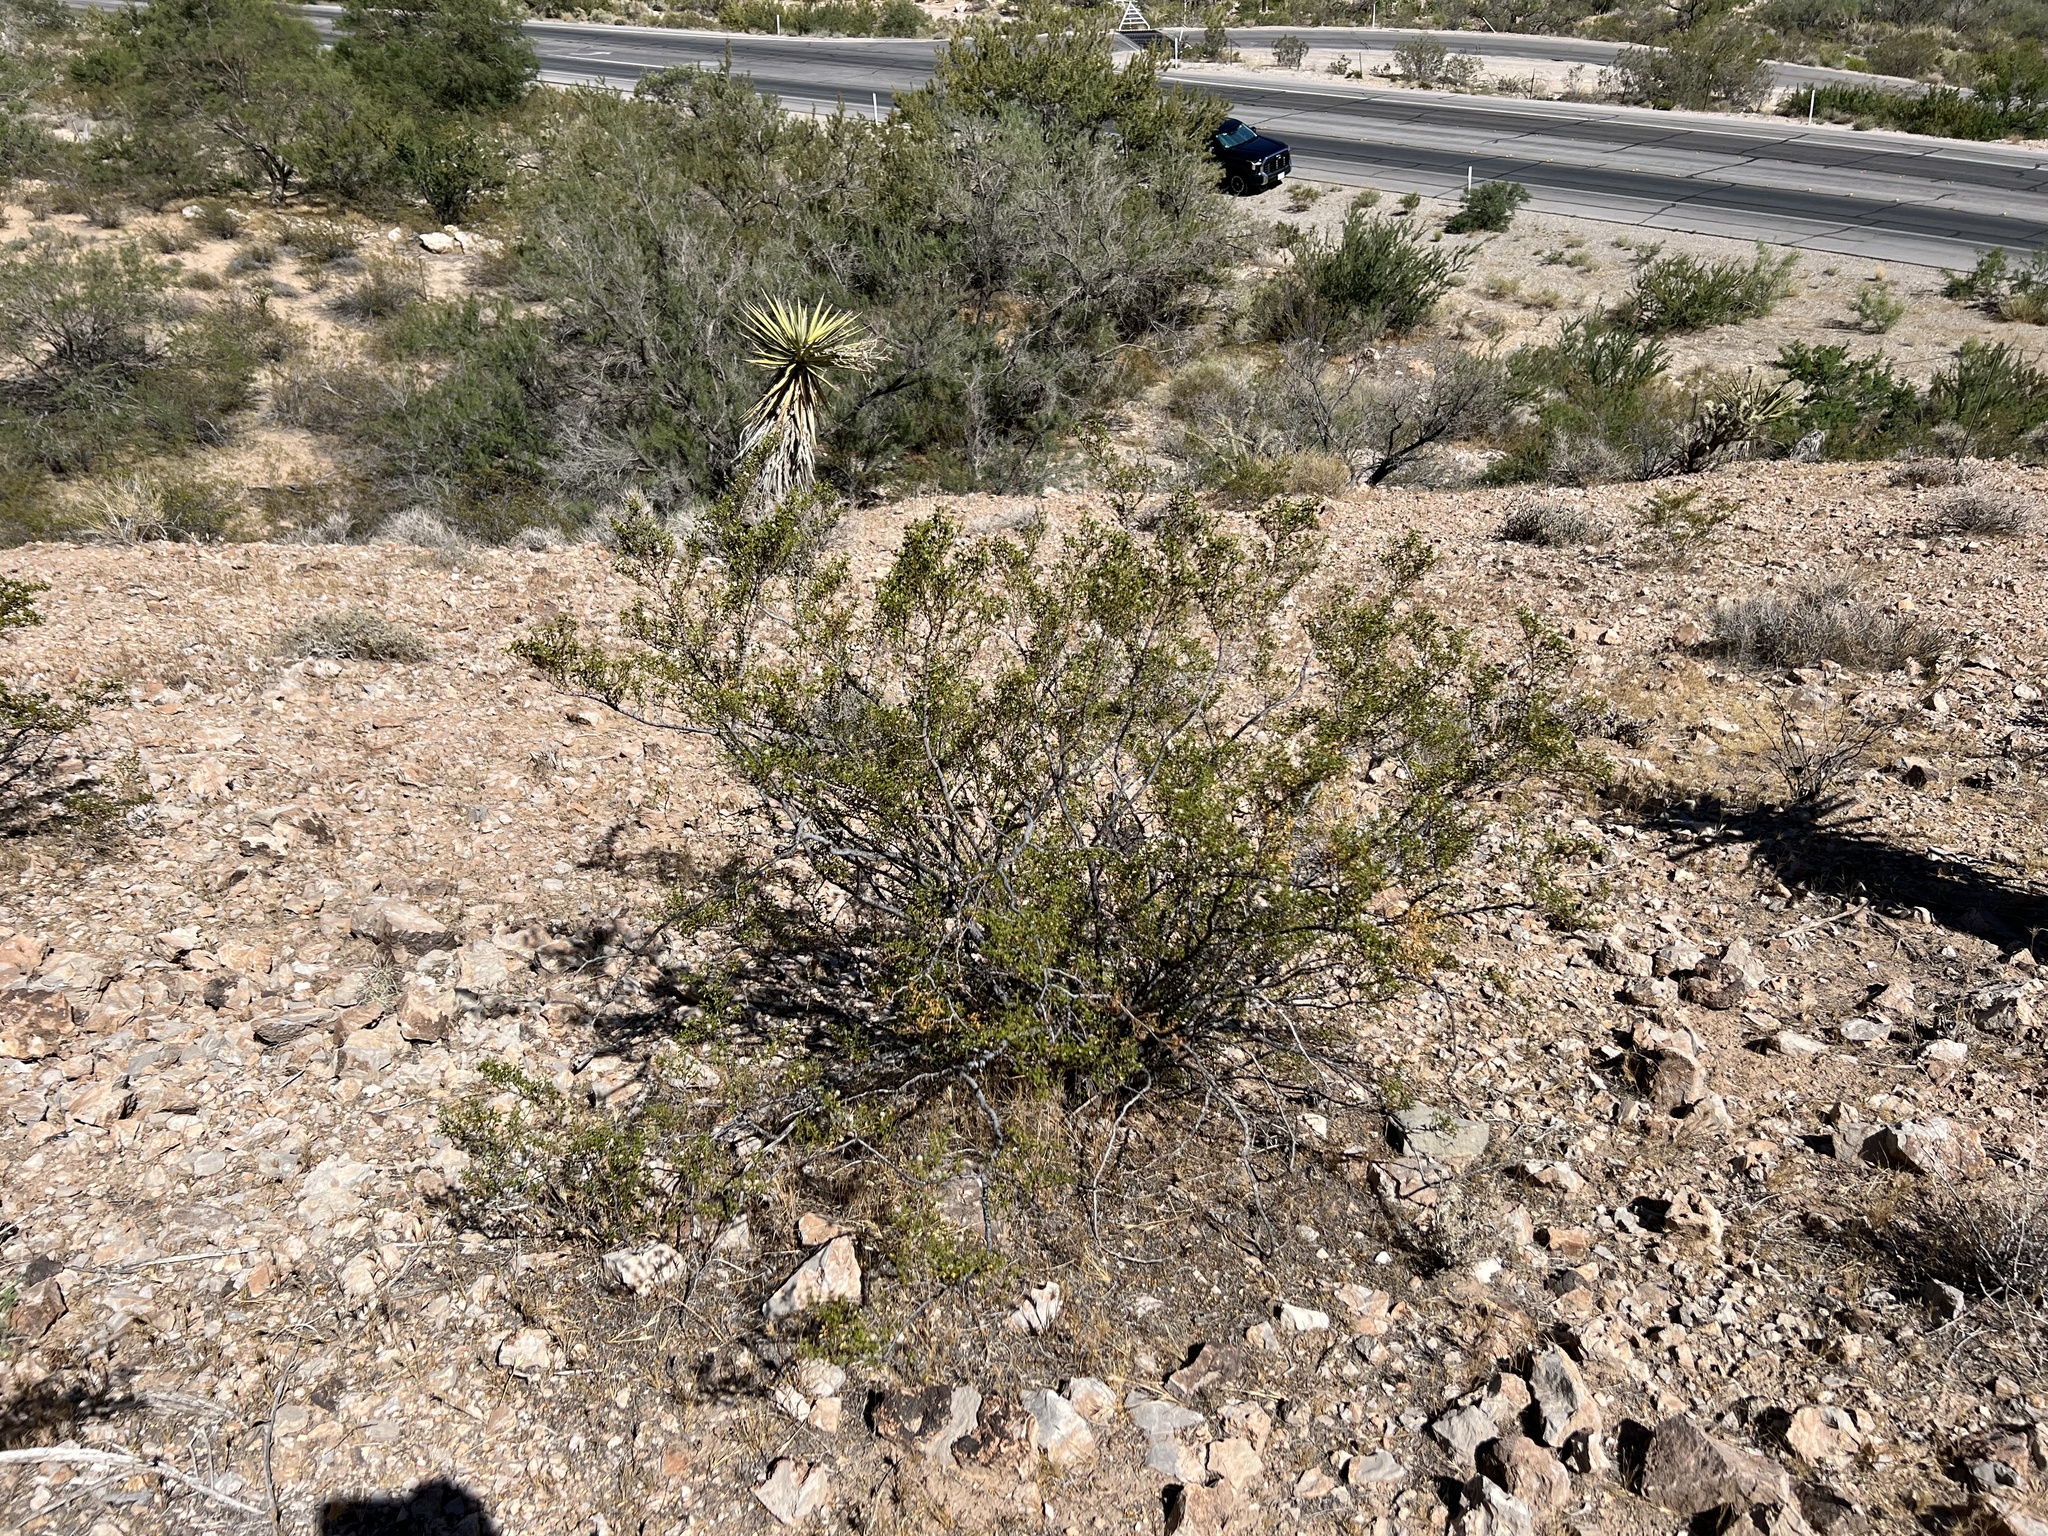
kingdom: Plantae
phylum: Tracheophyta
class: Magnoliopsida
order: Zygophyllales
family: Zygophyllaceae
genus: Larrea
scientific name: Larrea tridentata
